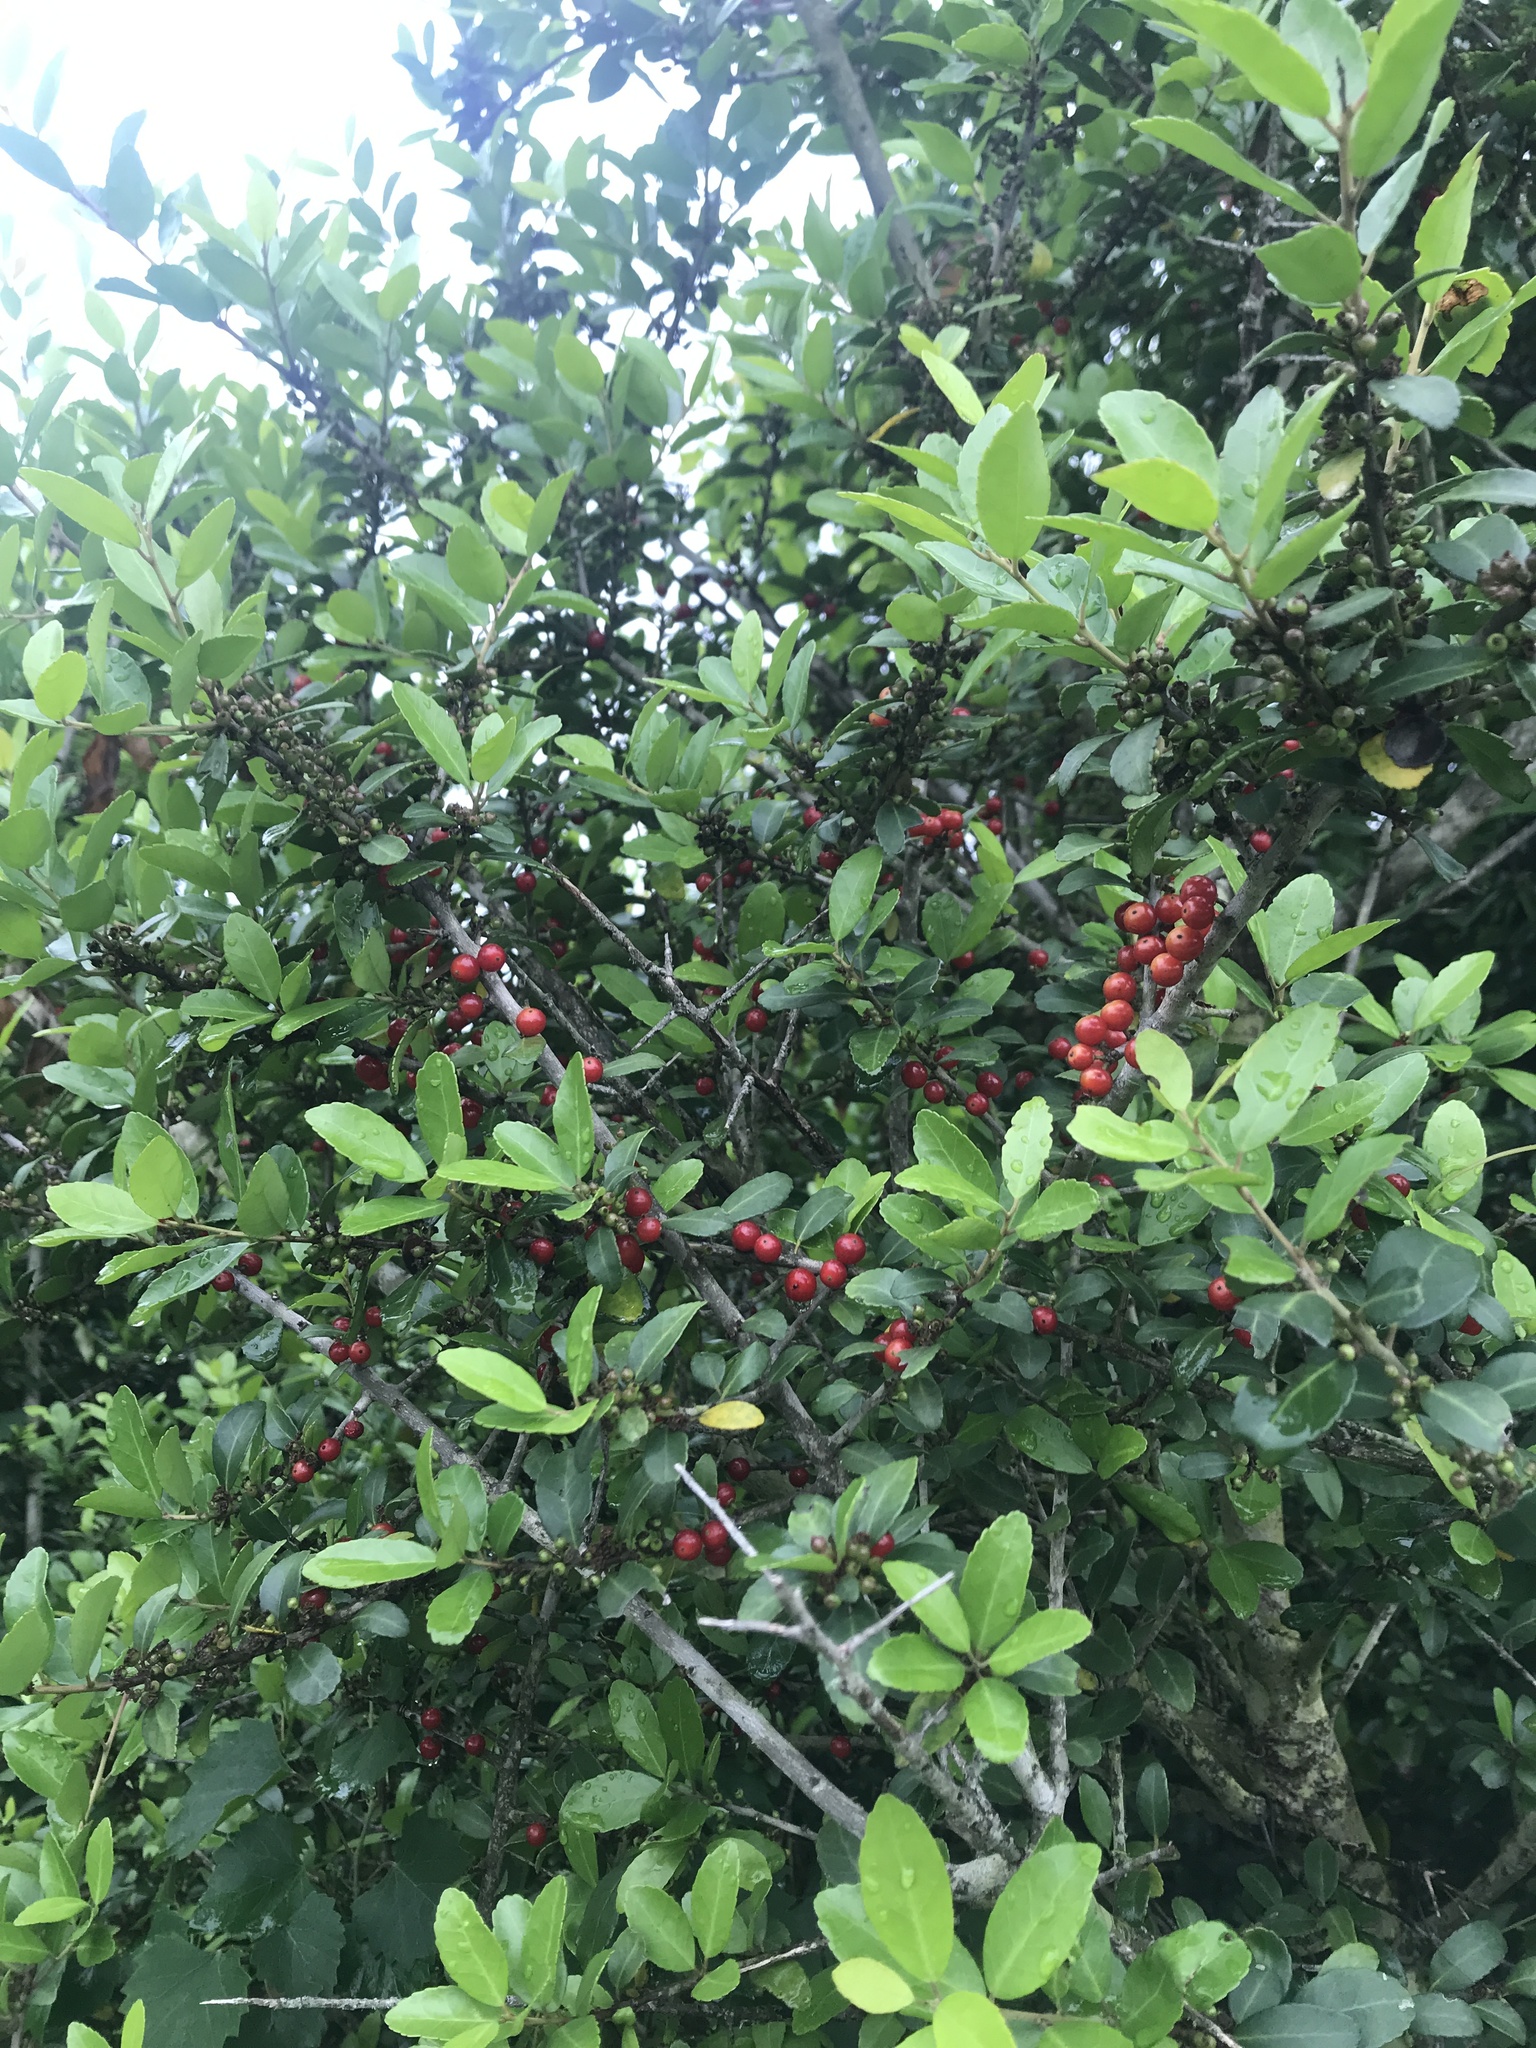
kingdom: Plantae
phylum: Tracheophyta
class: Magnoliopsida
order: Aquifoliales
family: Aquifoliaceae
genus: Ilex
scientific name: Ilex vomitoria
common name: Yaupon holly
